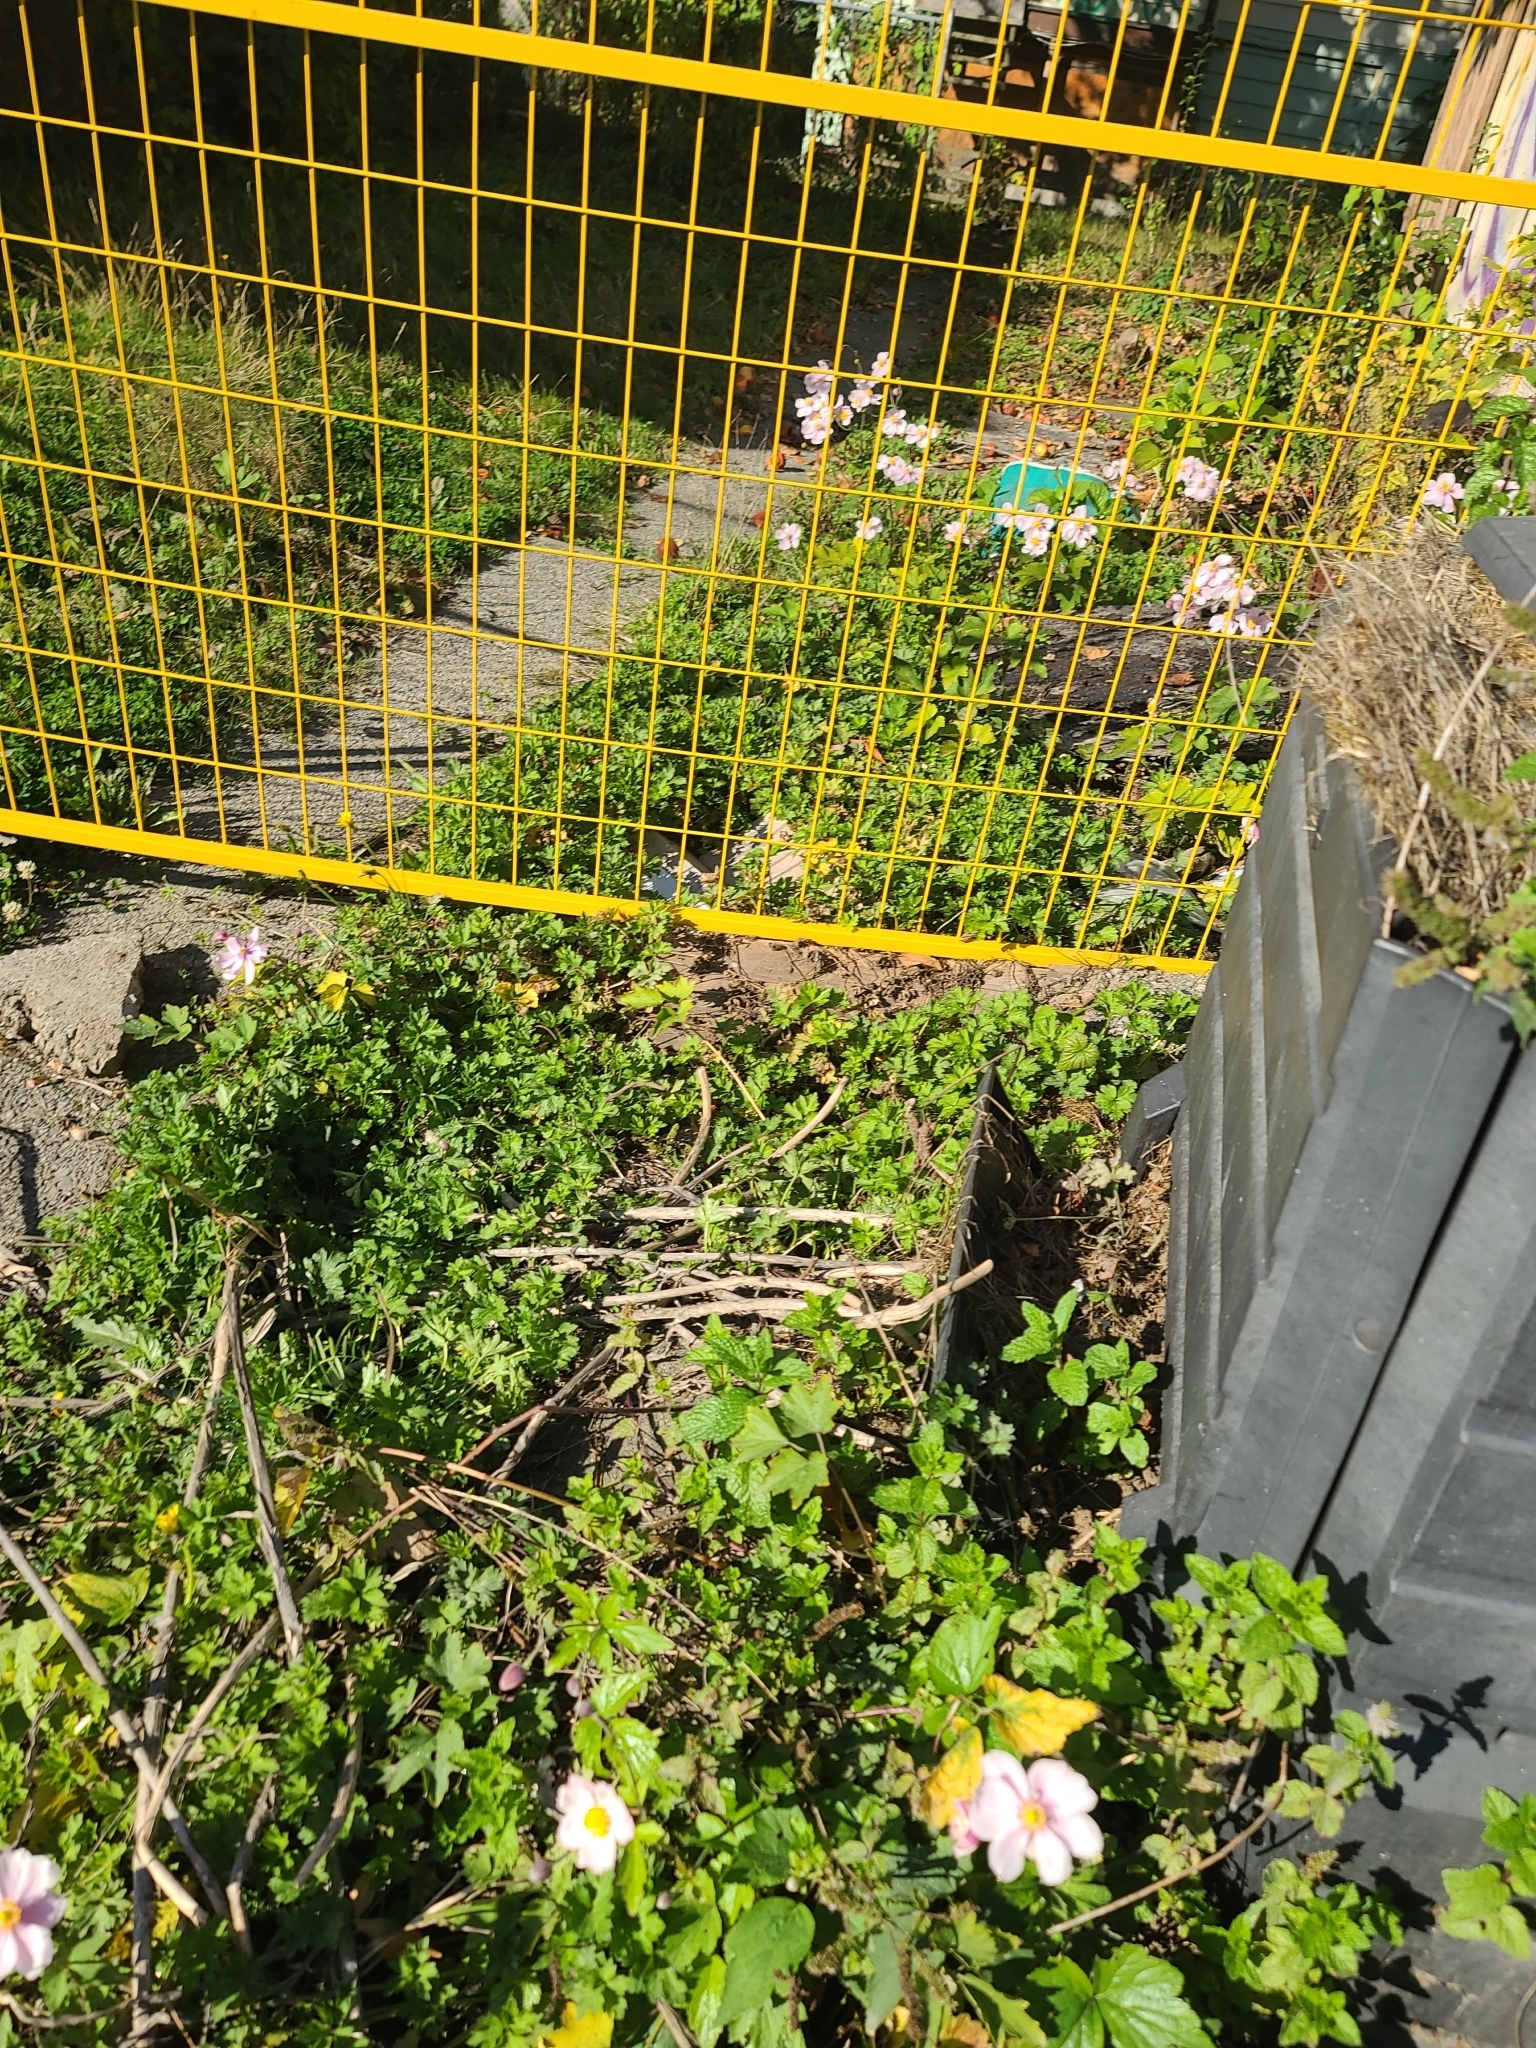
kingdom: Animalia
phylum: Arthropoda
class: Insecta
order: Hymenoptera
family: Vespidae
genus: Vespula
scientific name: Vespula pensylvanica
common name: Western yellowjacket
